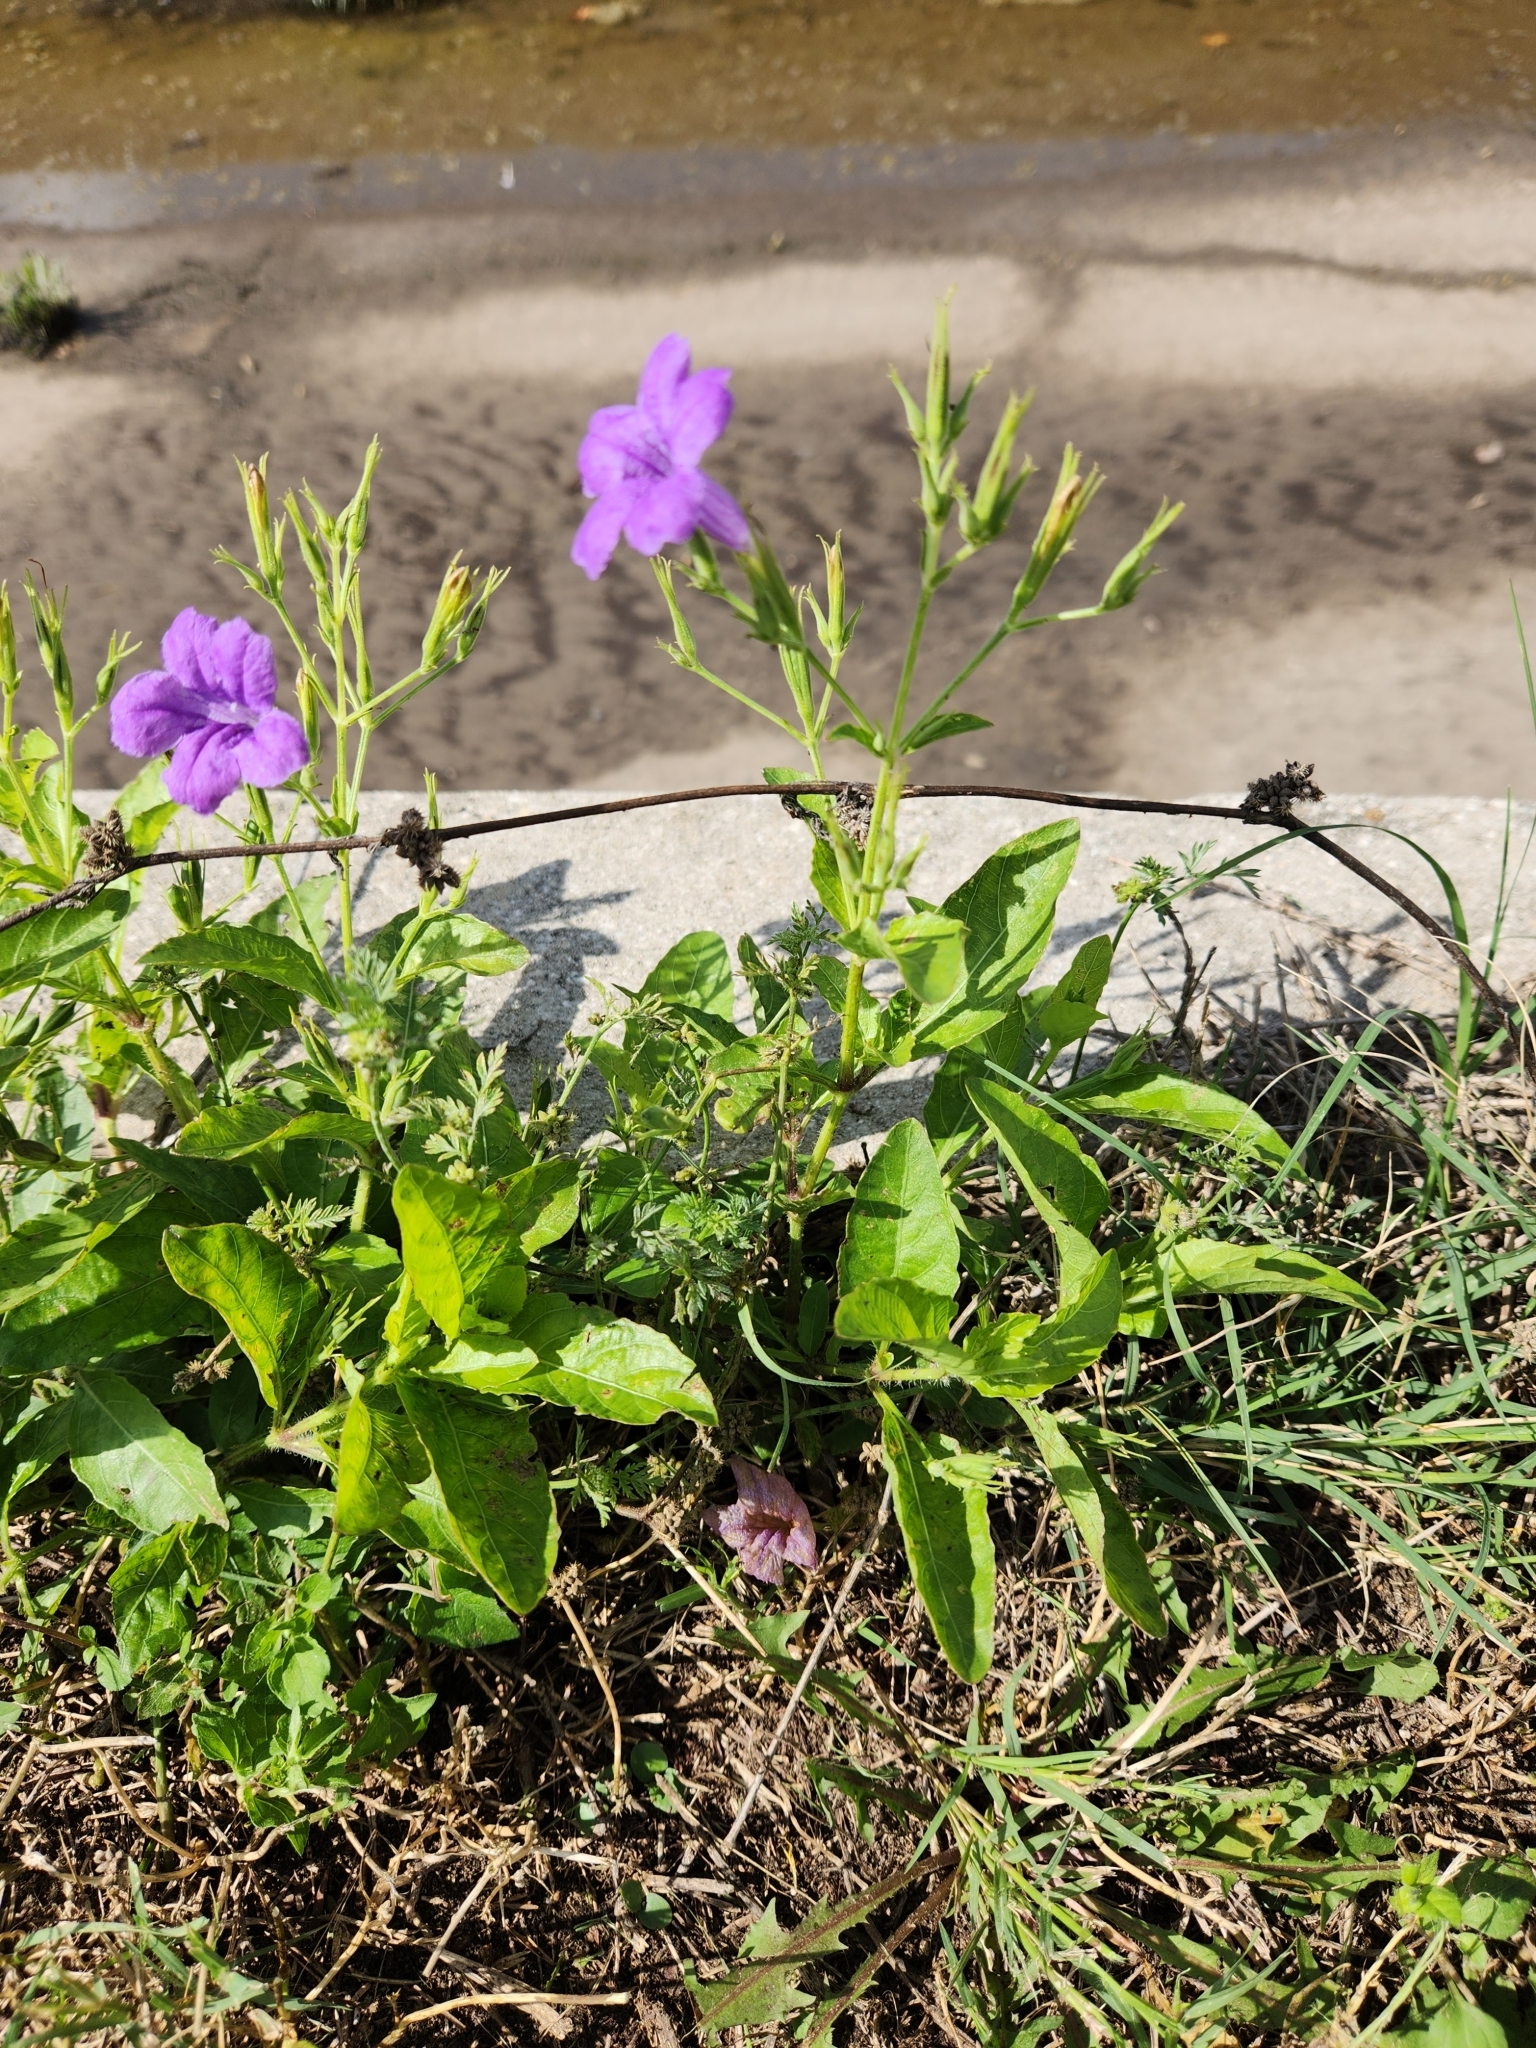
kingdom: Plantae
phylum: Tracheophyta
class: Magnoliopsida
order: Lamiales
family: Acanthaceae
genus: Ruellia
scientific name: Ruellia ciliatiflora
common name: Hairyflower wild petunia
